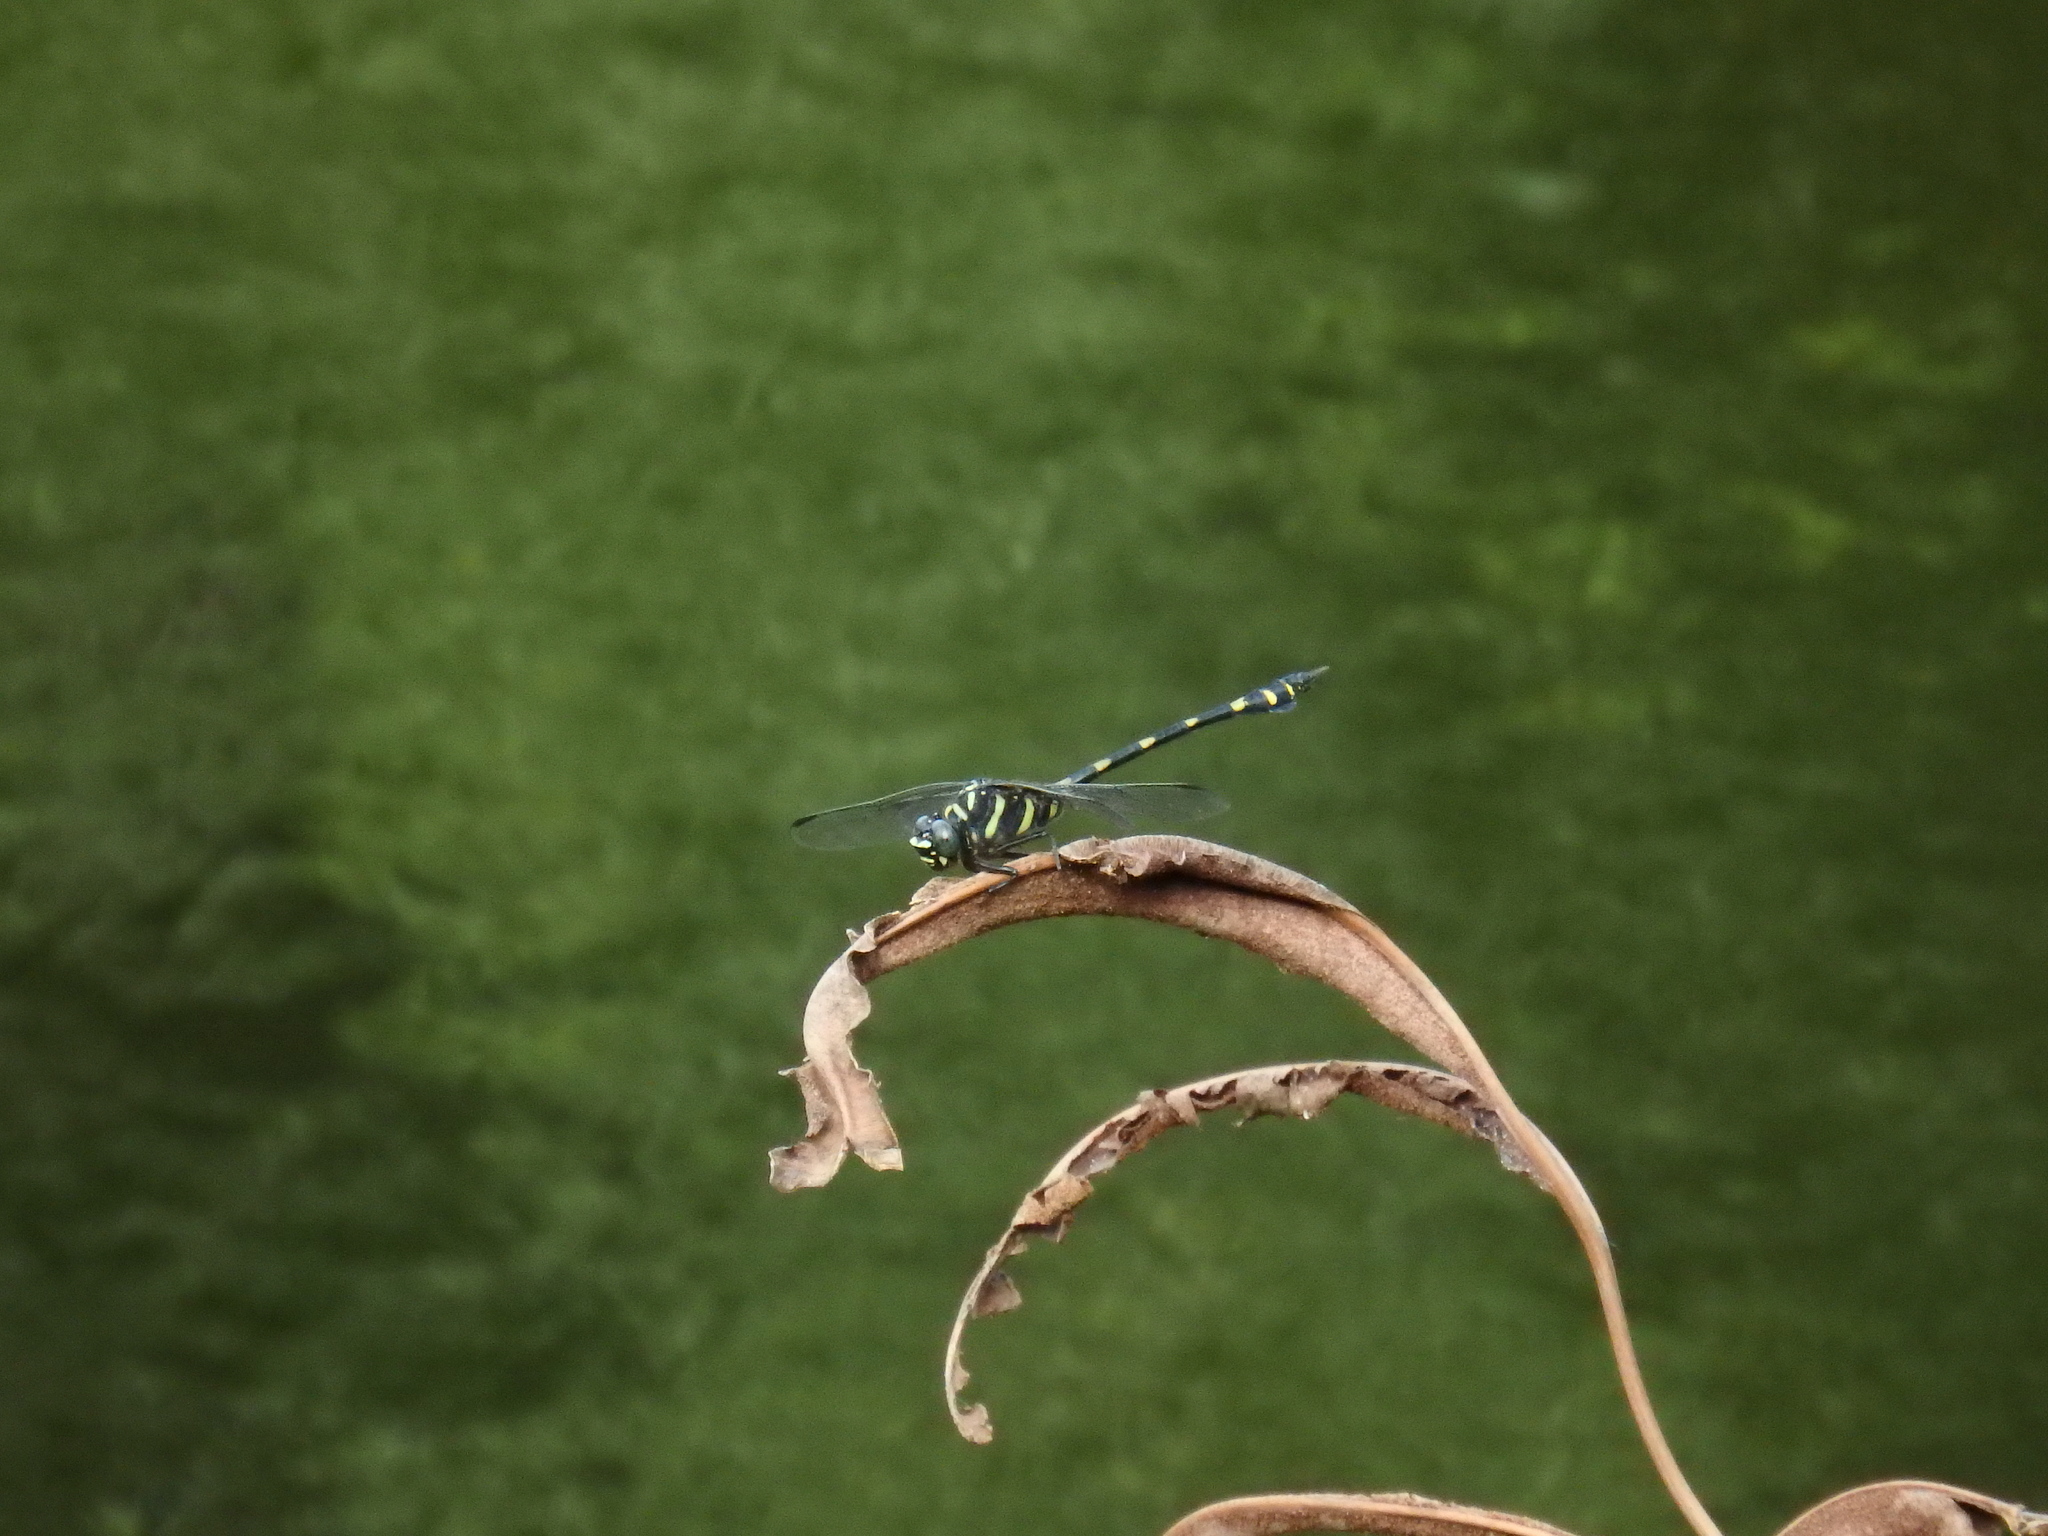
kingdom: Animalia
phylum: Arthropoda
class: Insecta
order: Odonata
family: Gomphidae
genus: Ictinogomphus
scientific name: Ictinogomphus decoratus
